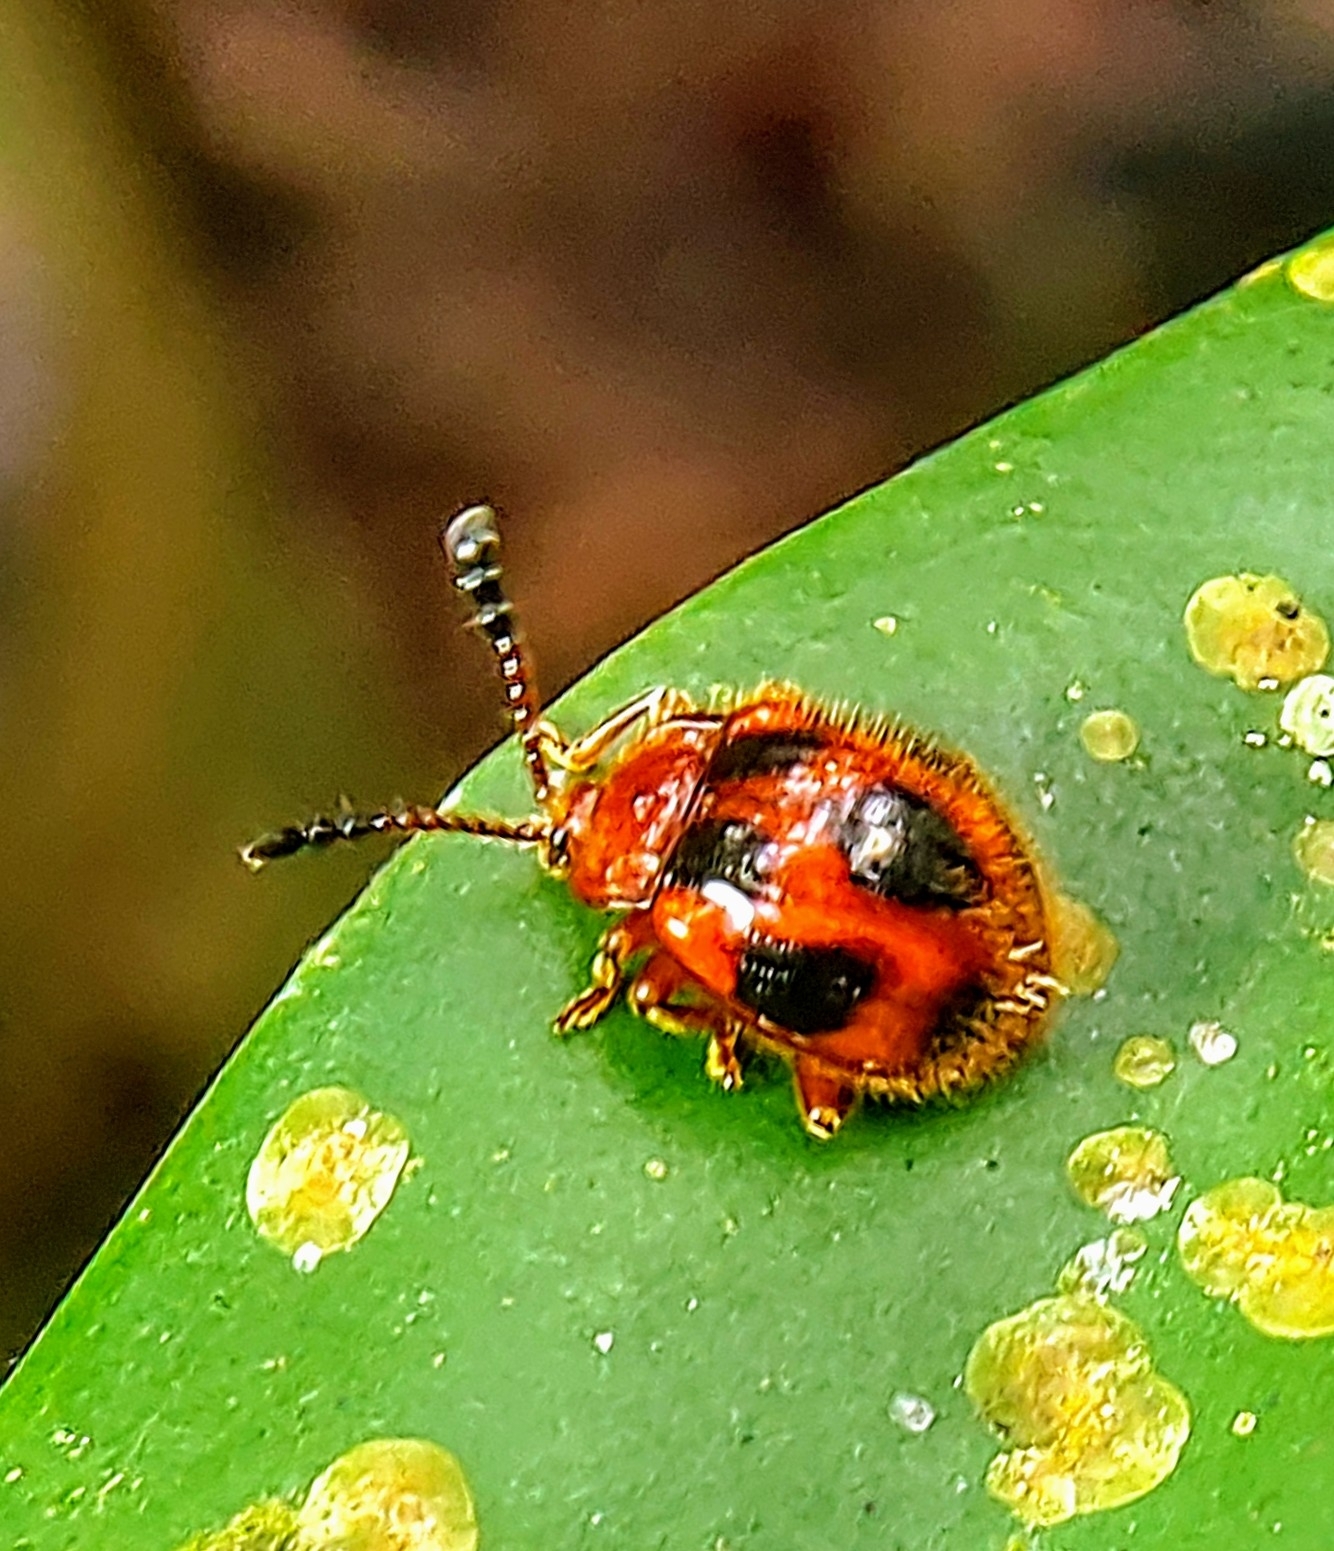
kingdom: Animalia
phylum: Arthropoda
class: Insecta
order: Coleoptera
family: Endomychidae
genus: Stenotarsus
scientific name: Stenotarsus
